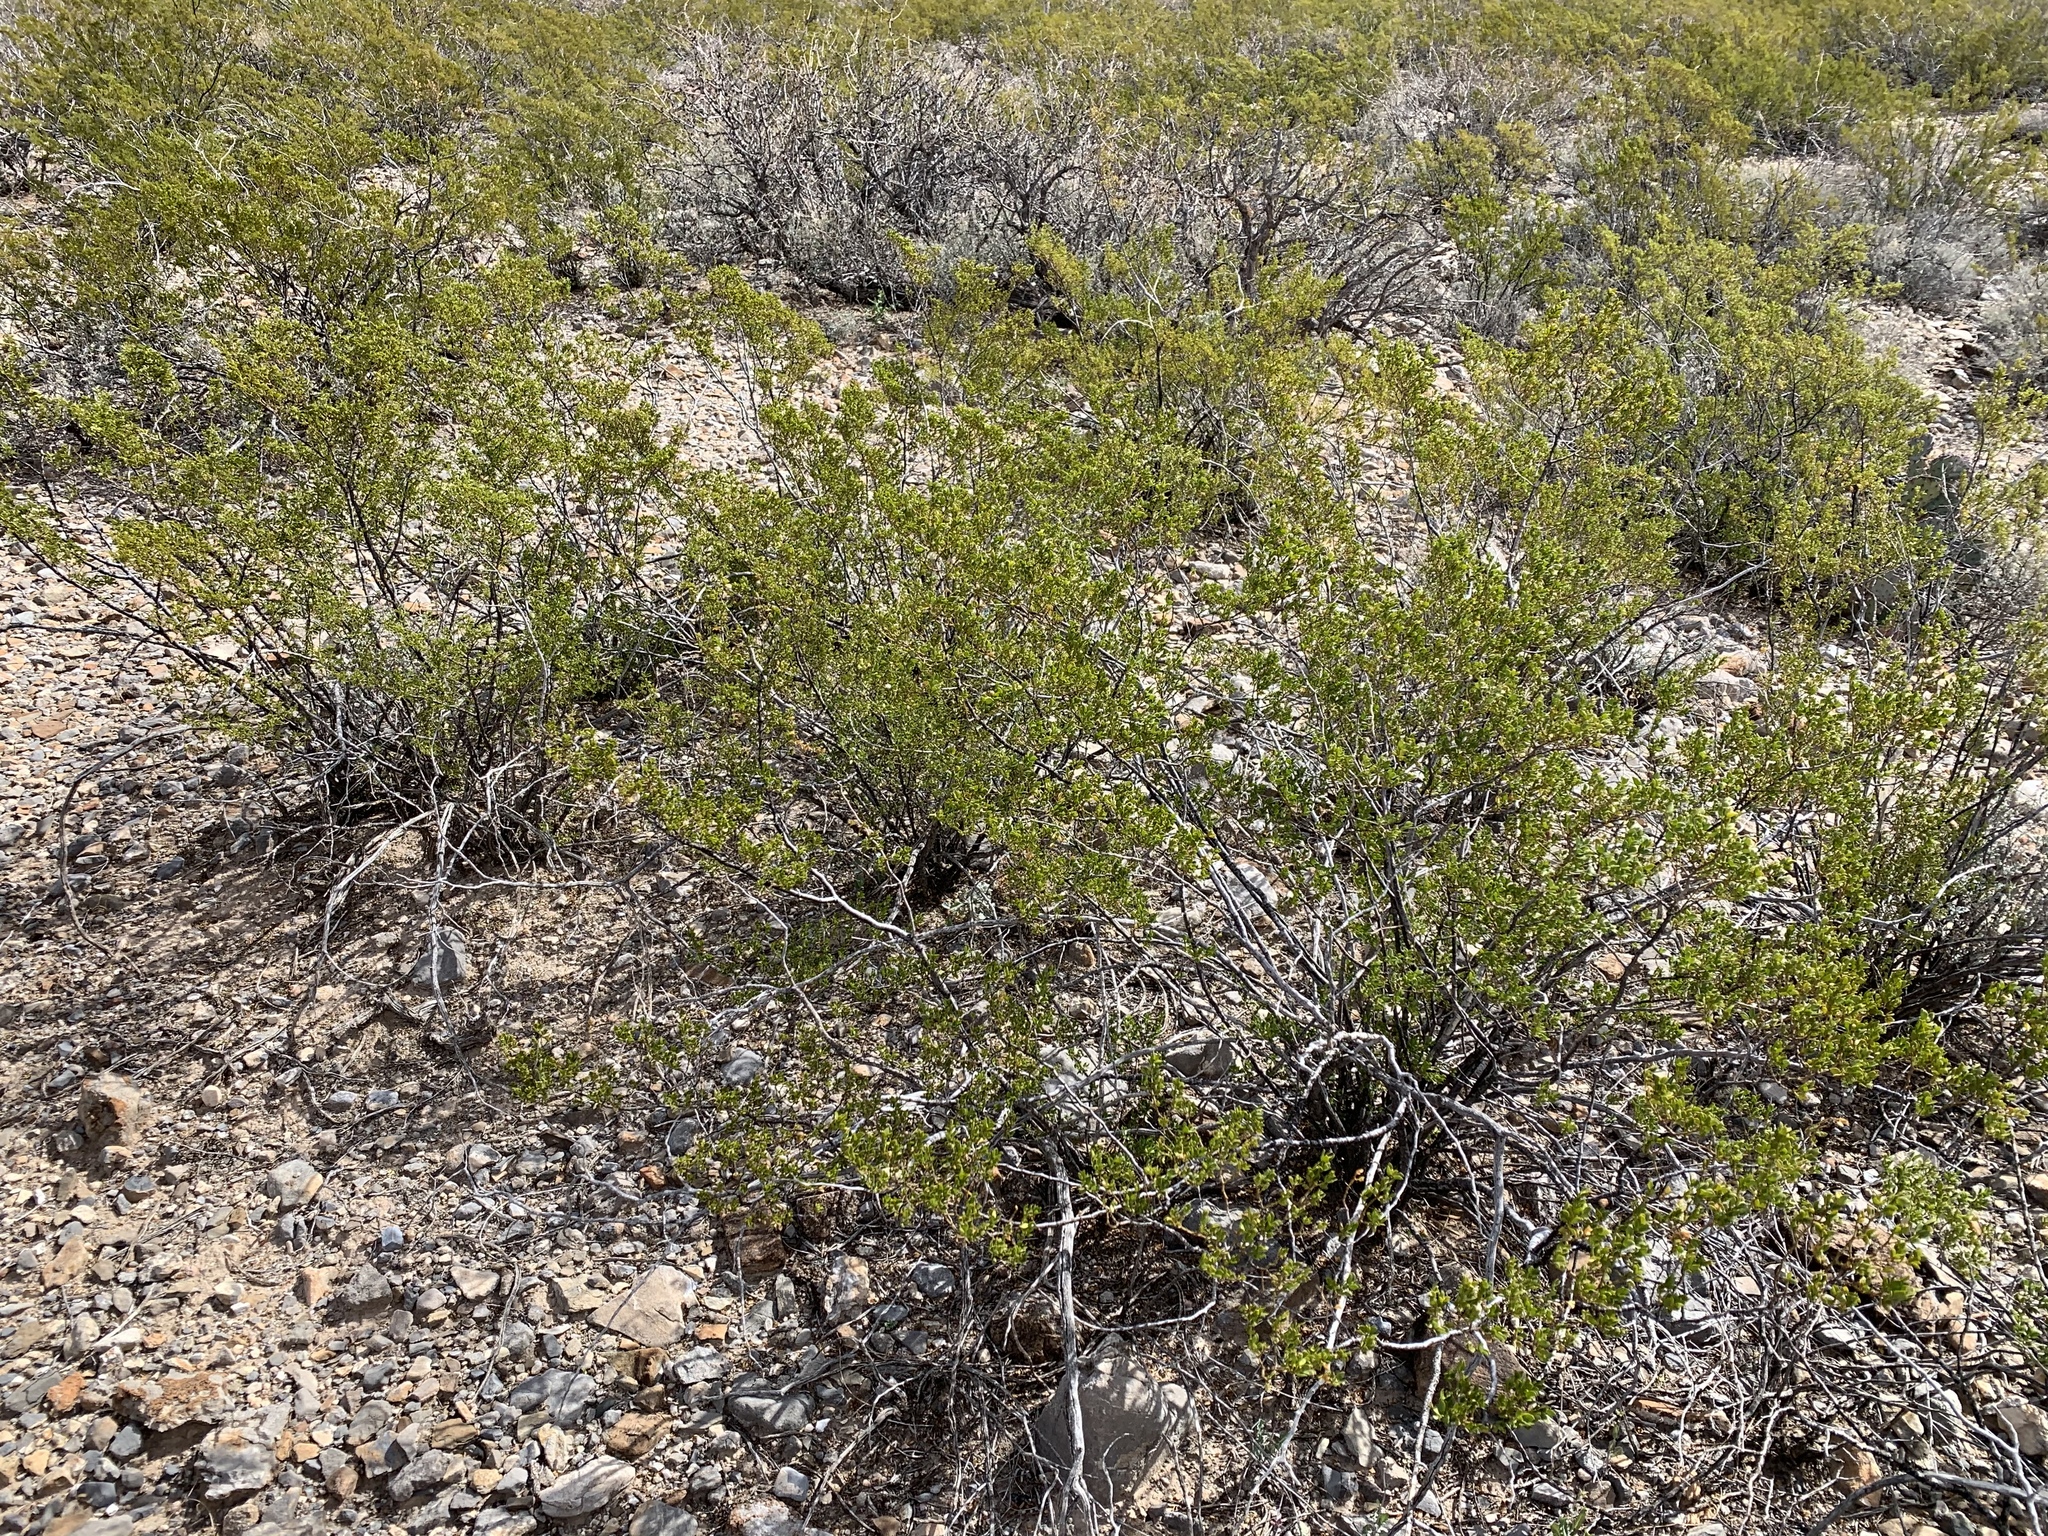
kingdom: Plantae
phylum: Tracheophyta
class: Magnoliopsida
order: Zygophyllales
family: Zygophyllaceae
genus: Larrea
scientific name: Larrea tridentata
